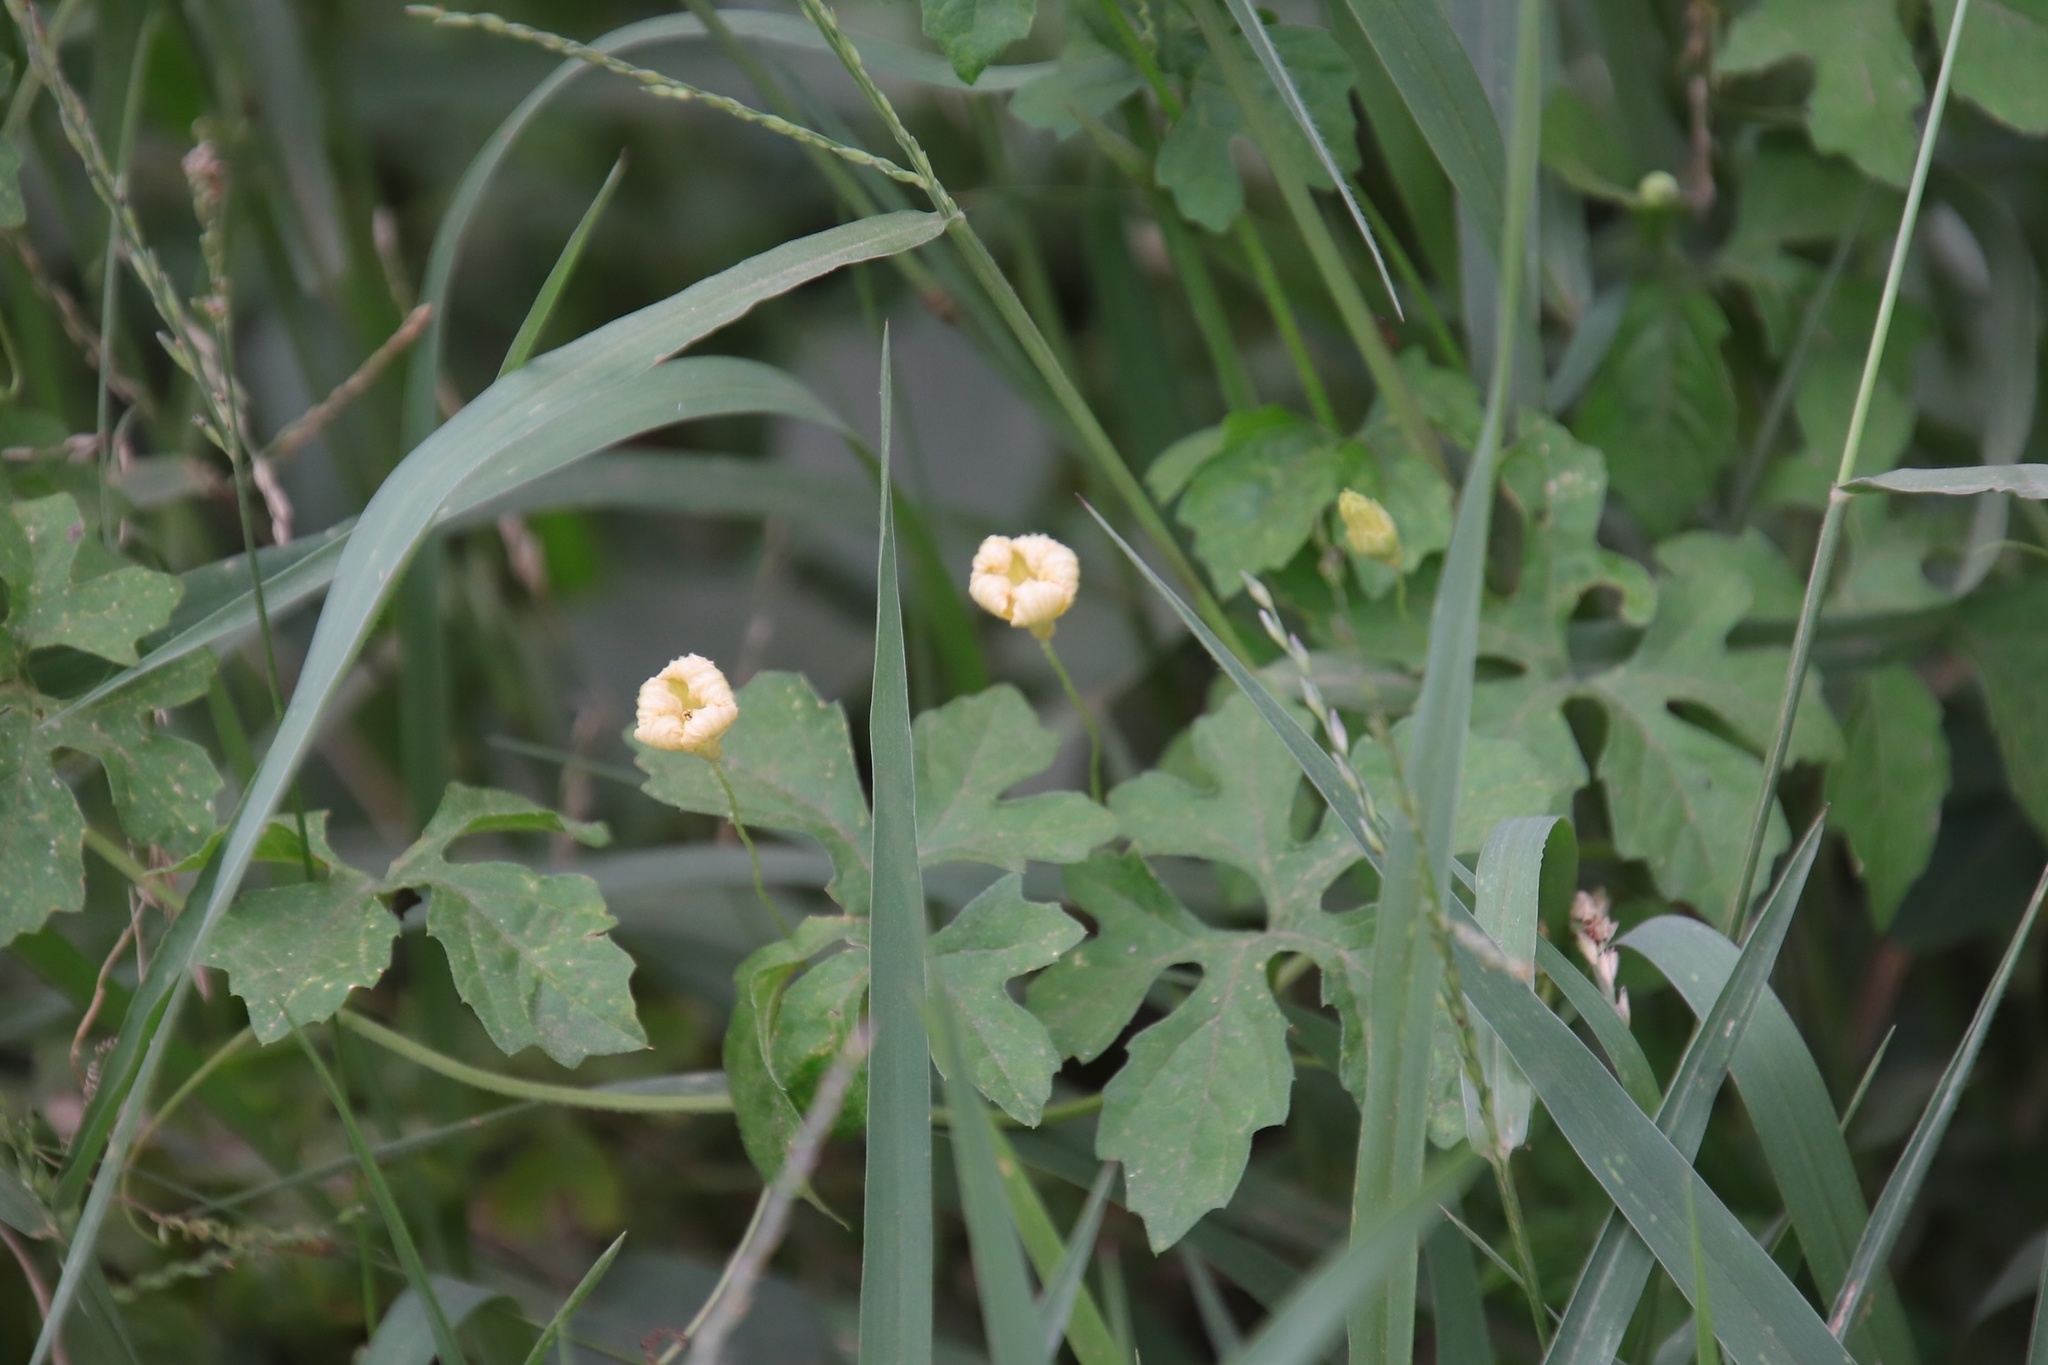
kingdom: Plantae
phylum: Tracheophyta
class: Magnoliopsida
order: Cucurbitales
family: Cucurbitaceae
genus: Momordica
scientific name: Momordica charantia
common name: Balsampear
